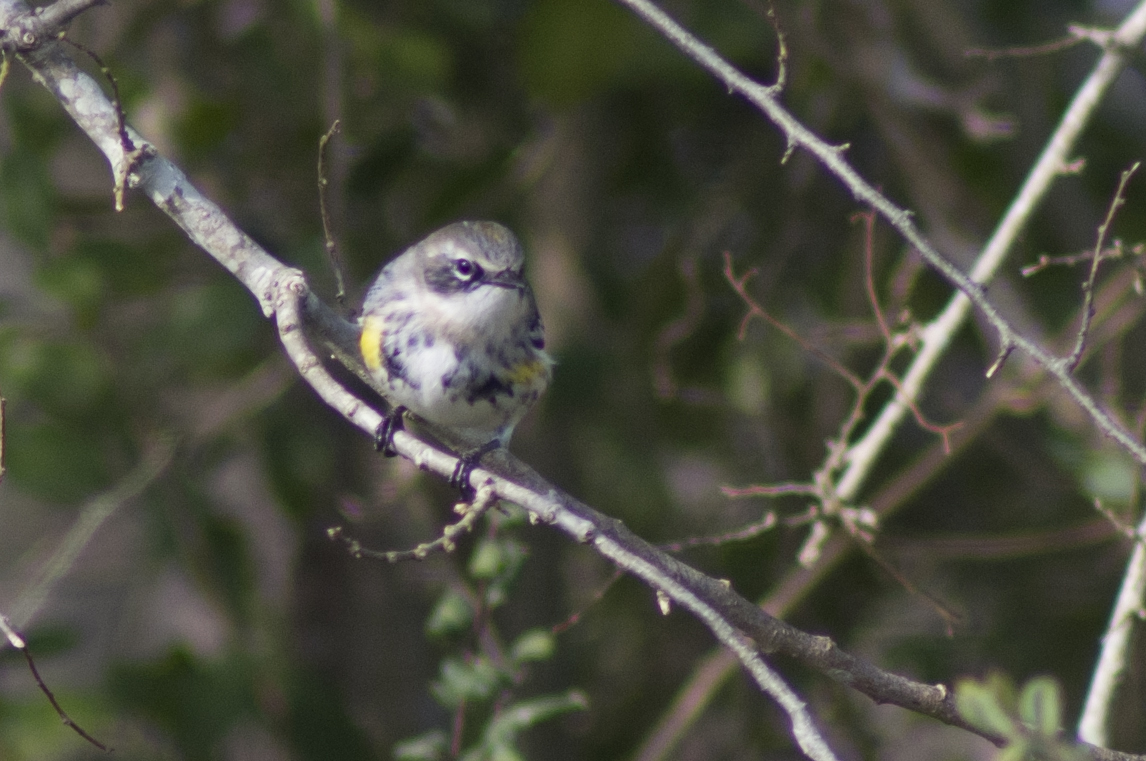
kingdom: Animalia
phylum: Chordata
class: Aves
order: Passeriformes
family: Parulidae
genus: Setophaga
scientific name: Setophaga coronata
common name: Myrtle warbler
